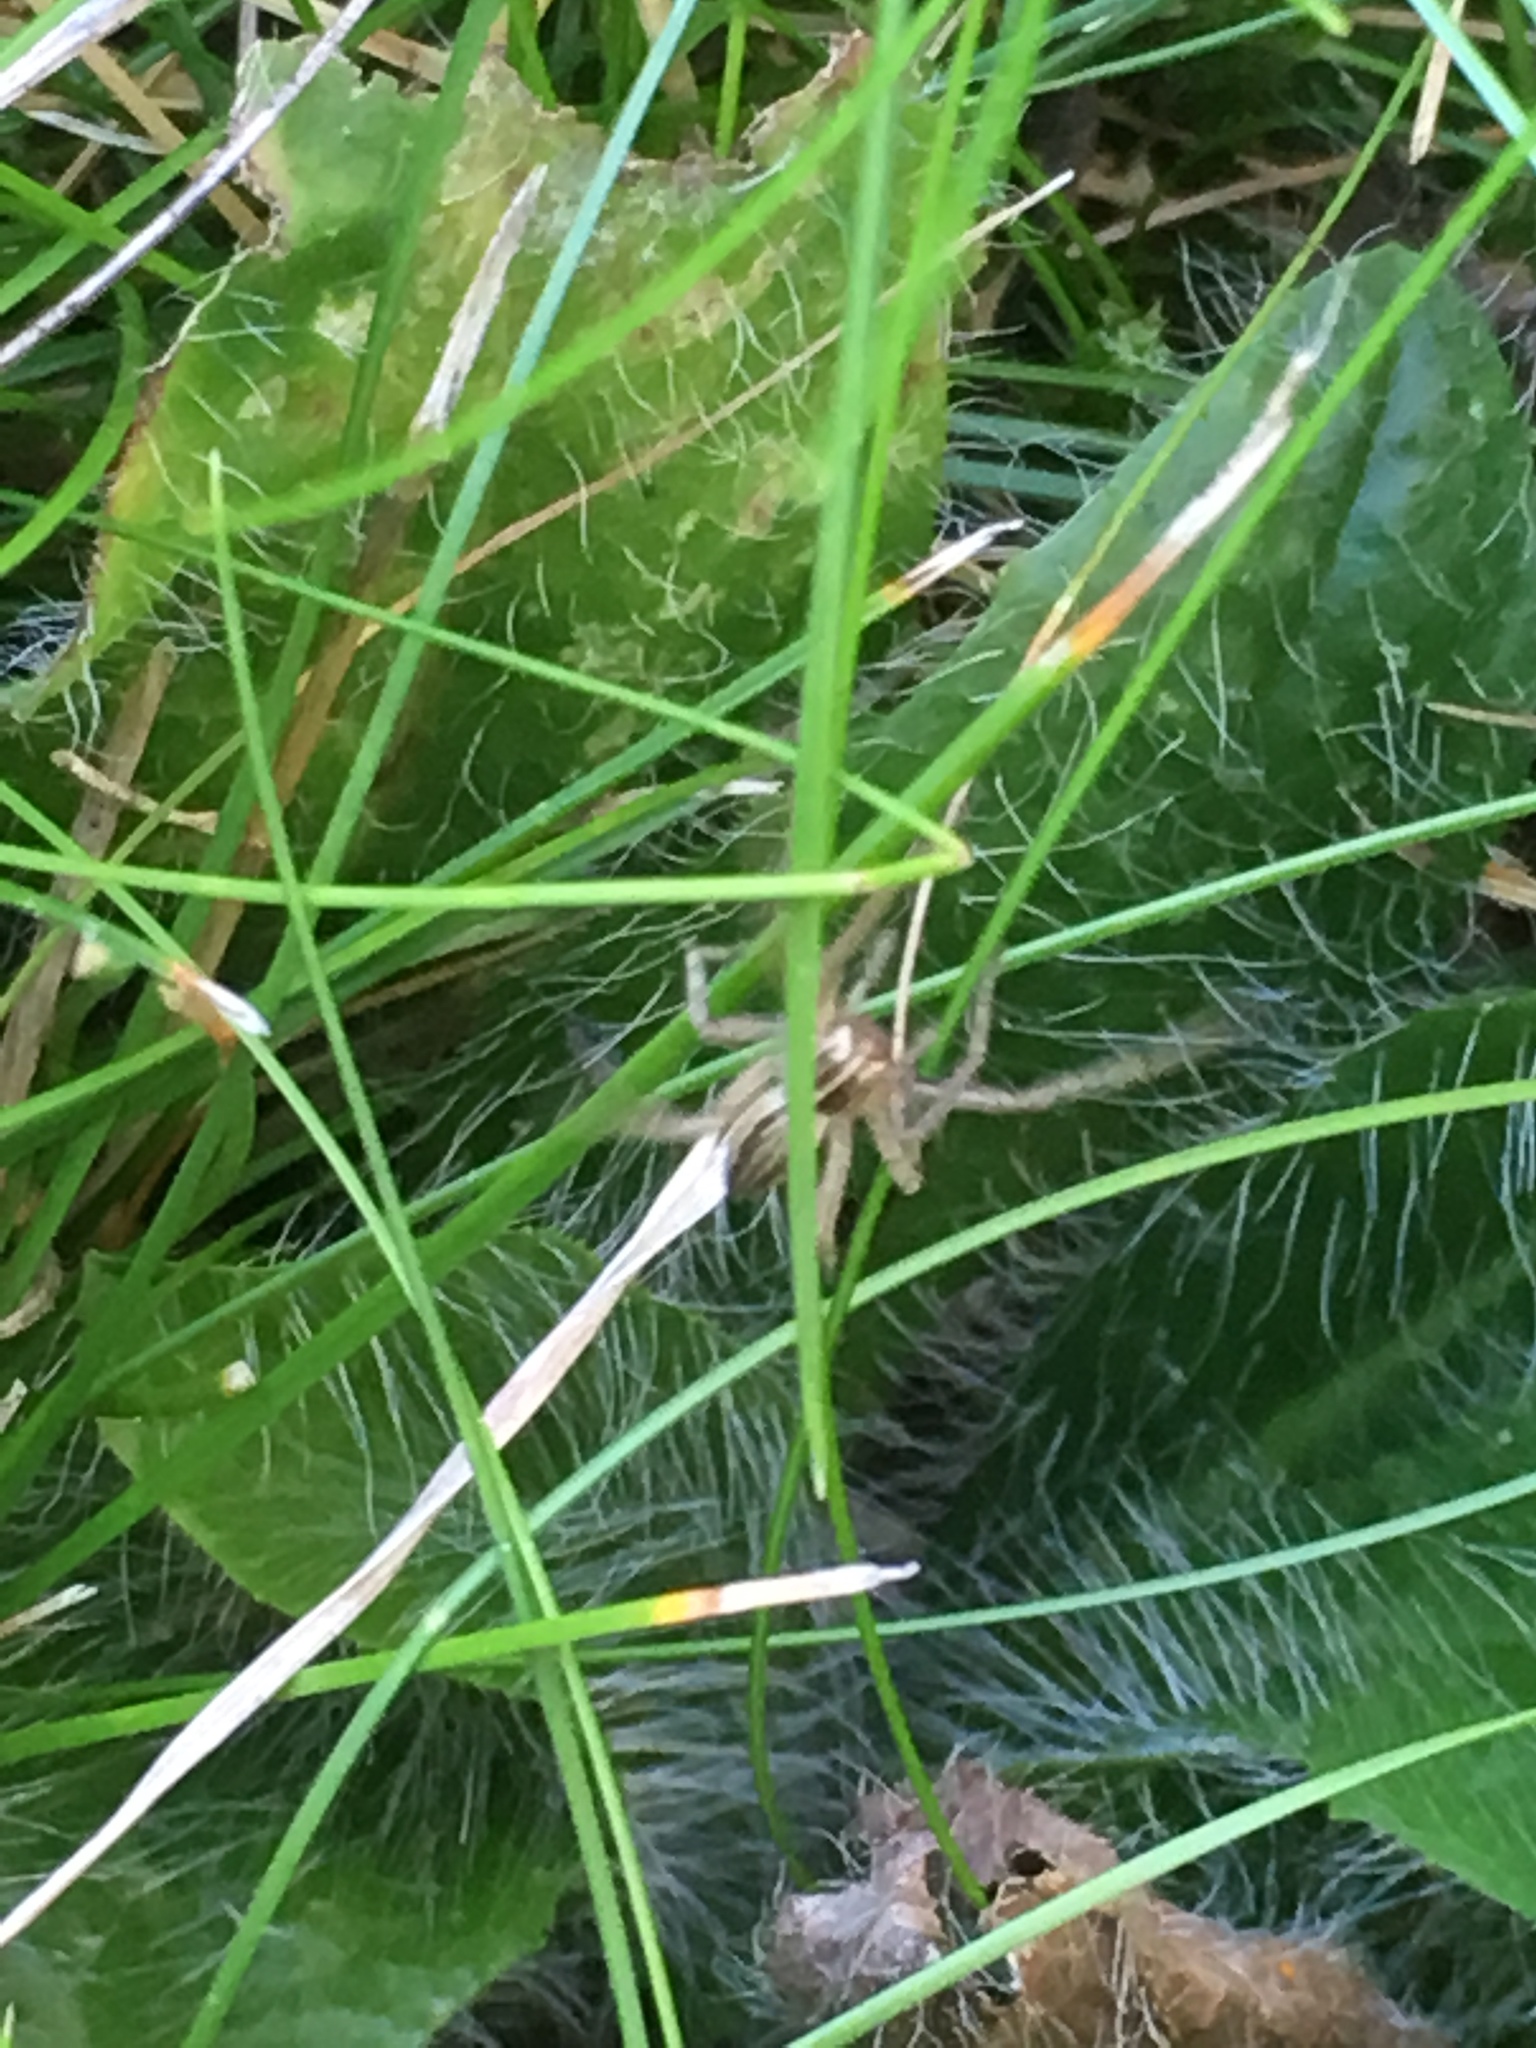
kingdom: Animalia
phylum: Arthropoda
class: Arachnida
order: Araneae
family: Pisauridae
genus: Pisaura
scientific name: Pisaura mirabilis
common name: Tent spider
